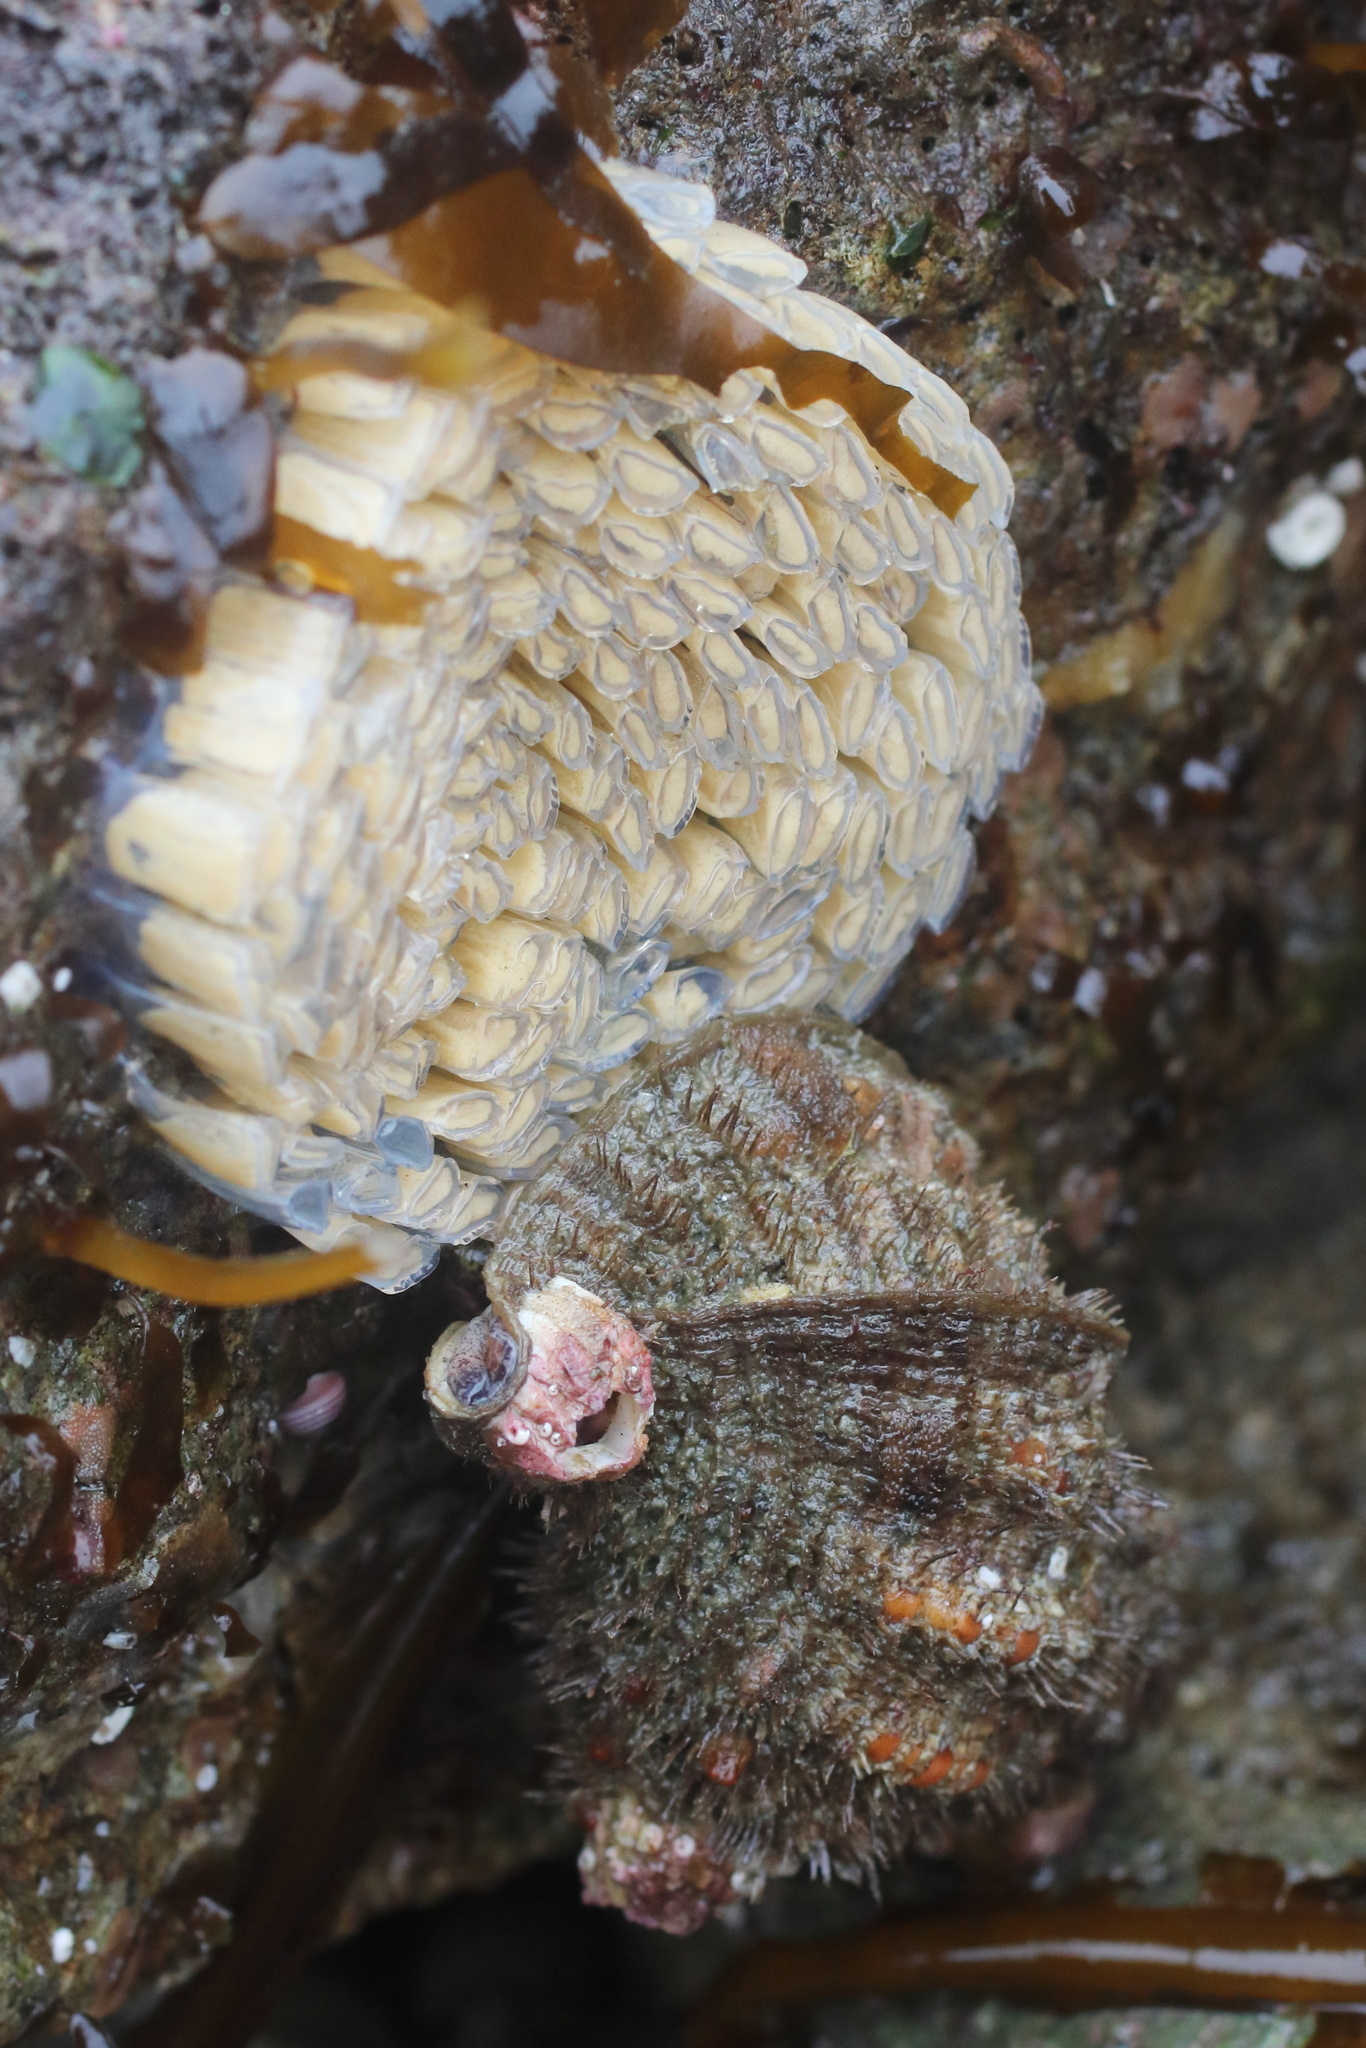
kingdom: Animalia
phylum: Mollusca
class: Gastropoda
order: Littorinimorpha
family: Cymatiidae
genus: Fusitriton
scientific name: Fusitriton oregonensis
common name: Oregon hairy triton
